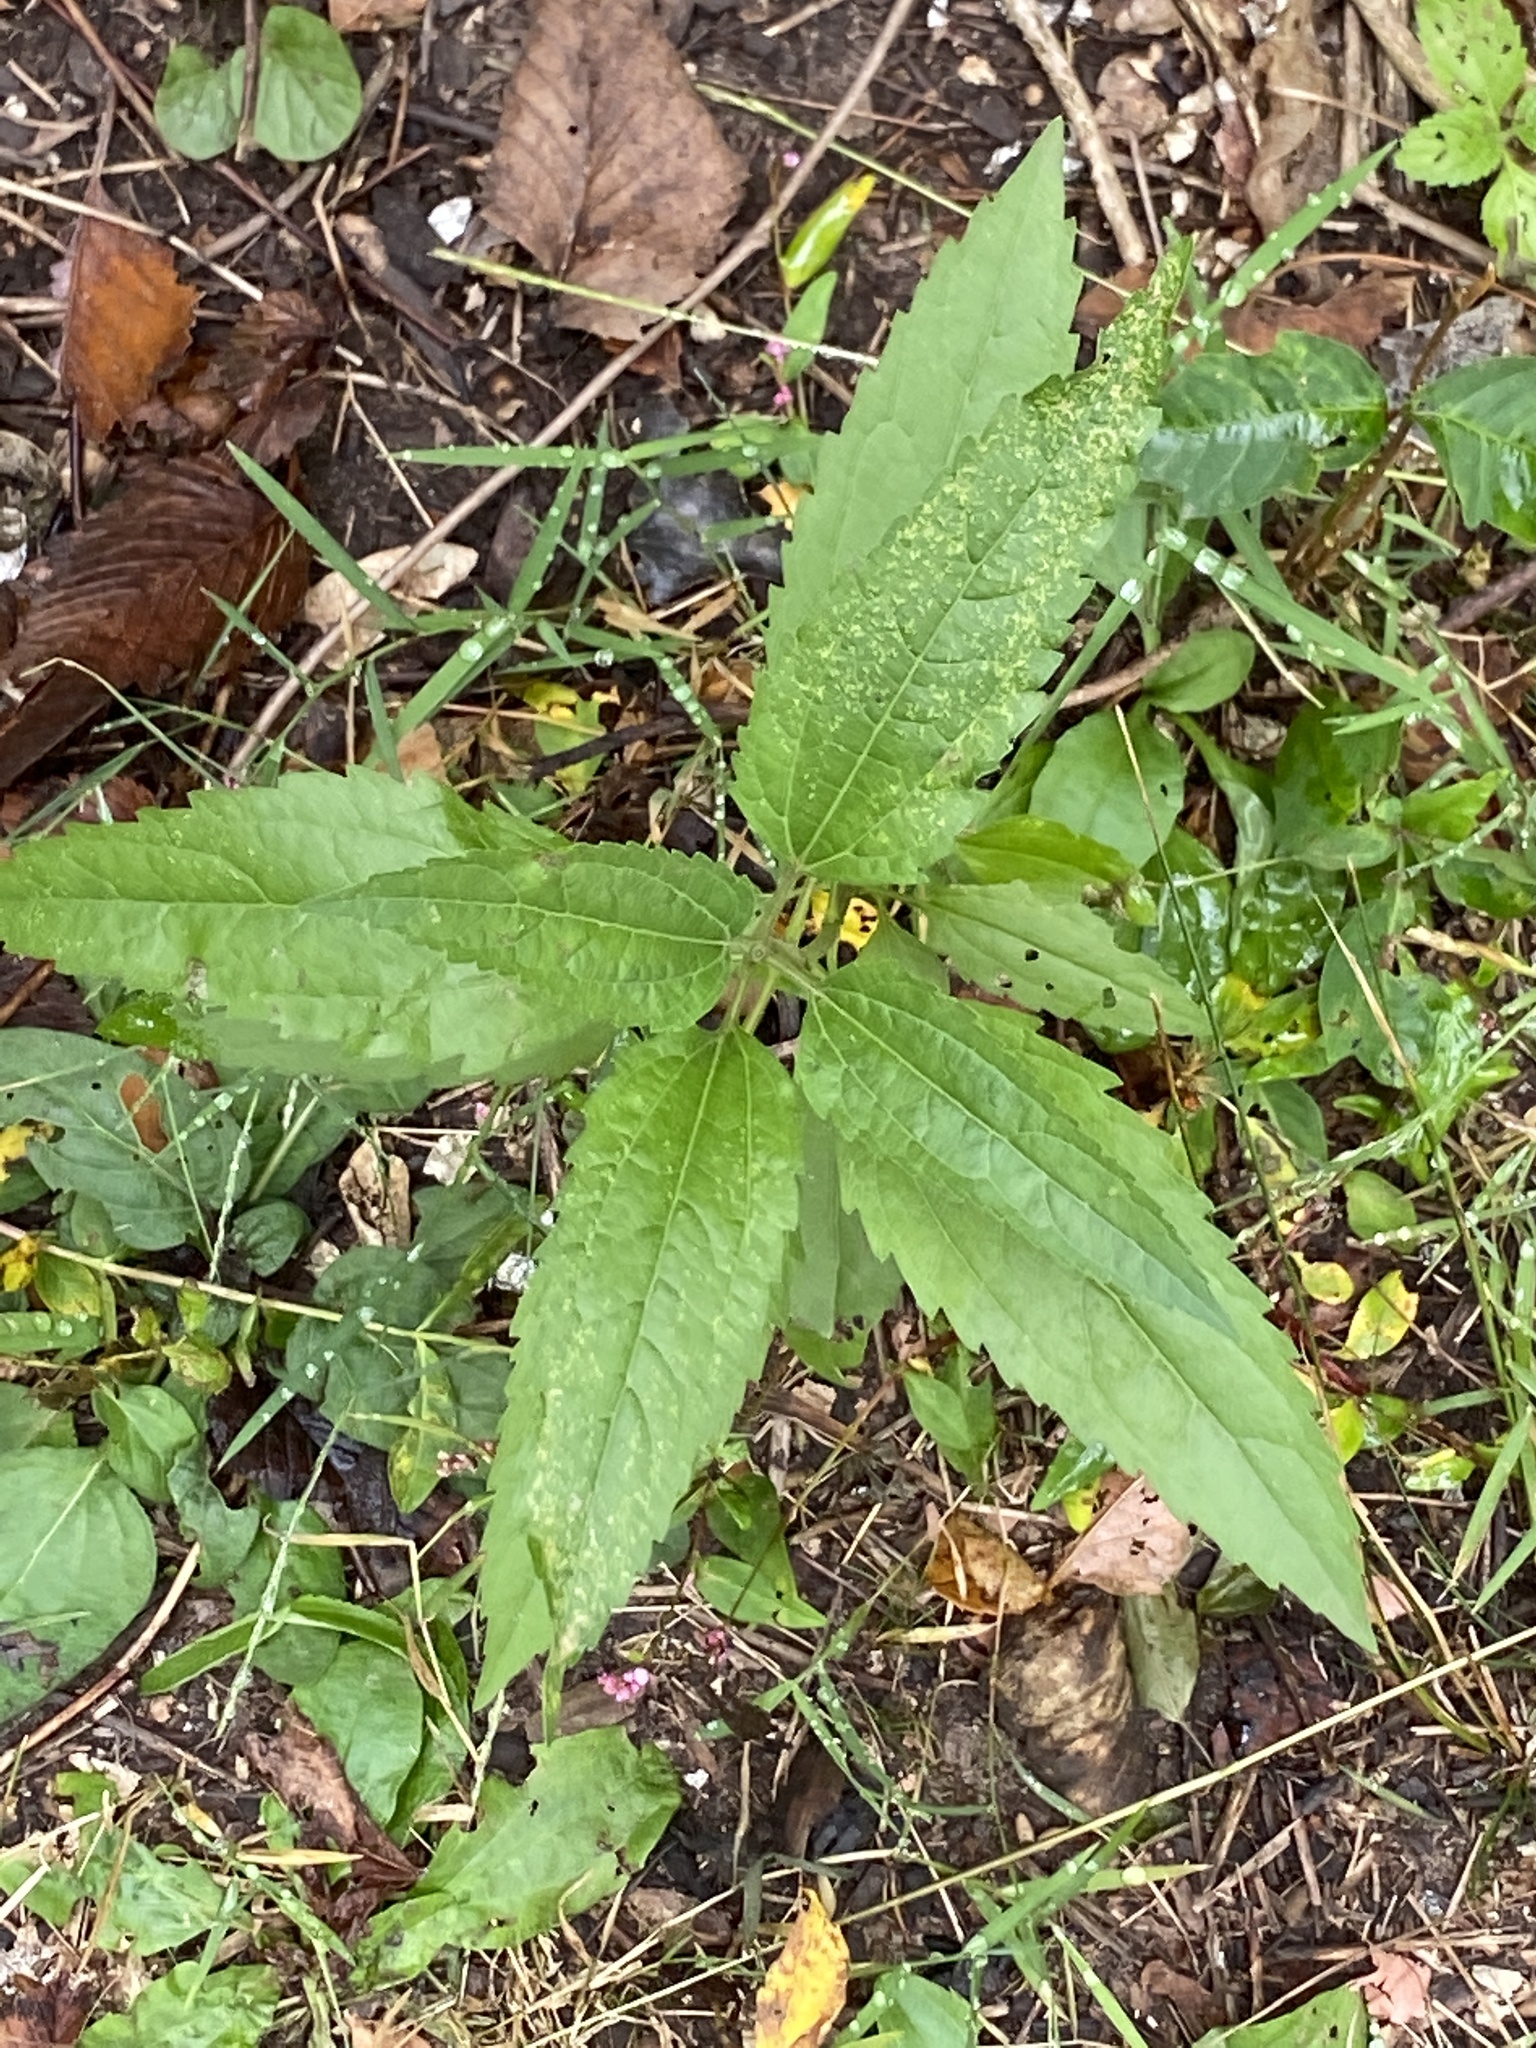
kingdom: Plantae
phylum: Tracheophyta
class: Magnoliopsida
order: Asterales
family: Asteraceae
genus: Eupatorium
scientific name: Eupatorium serotinum
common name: Late boneset
